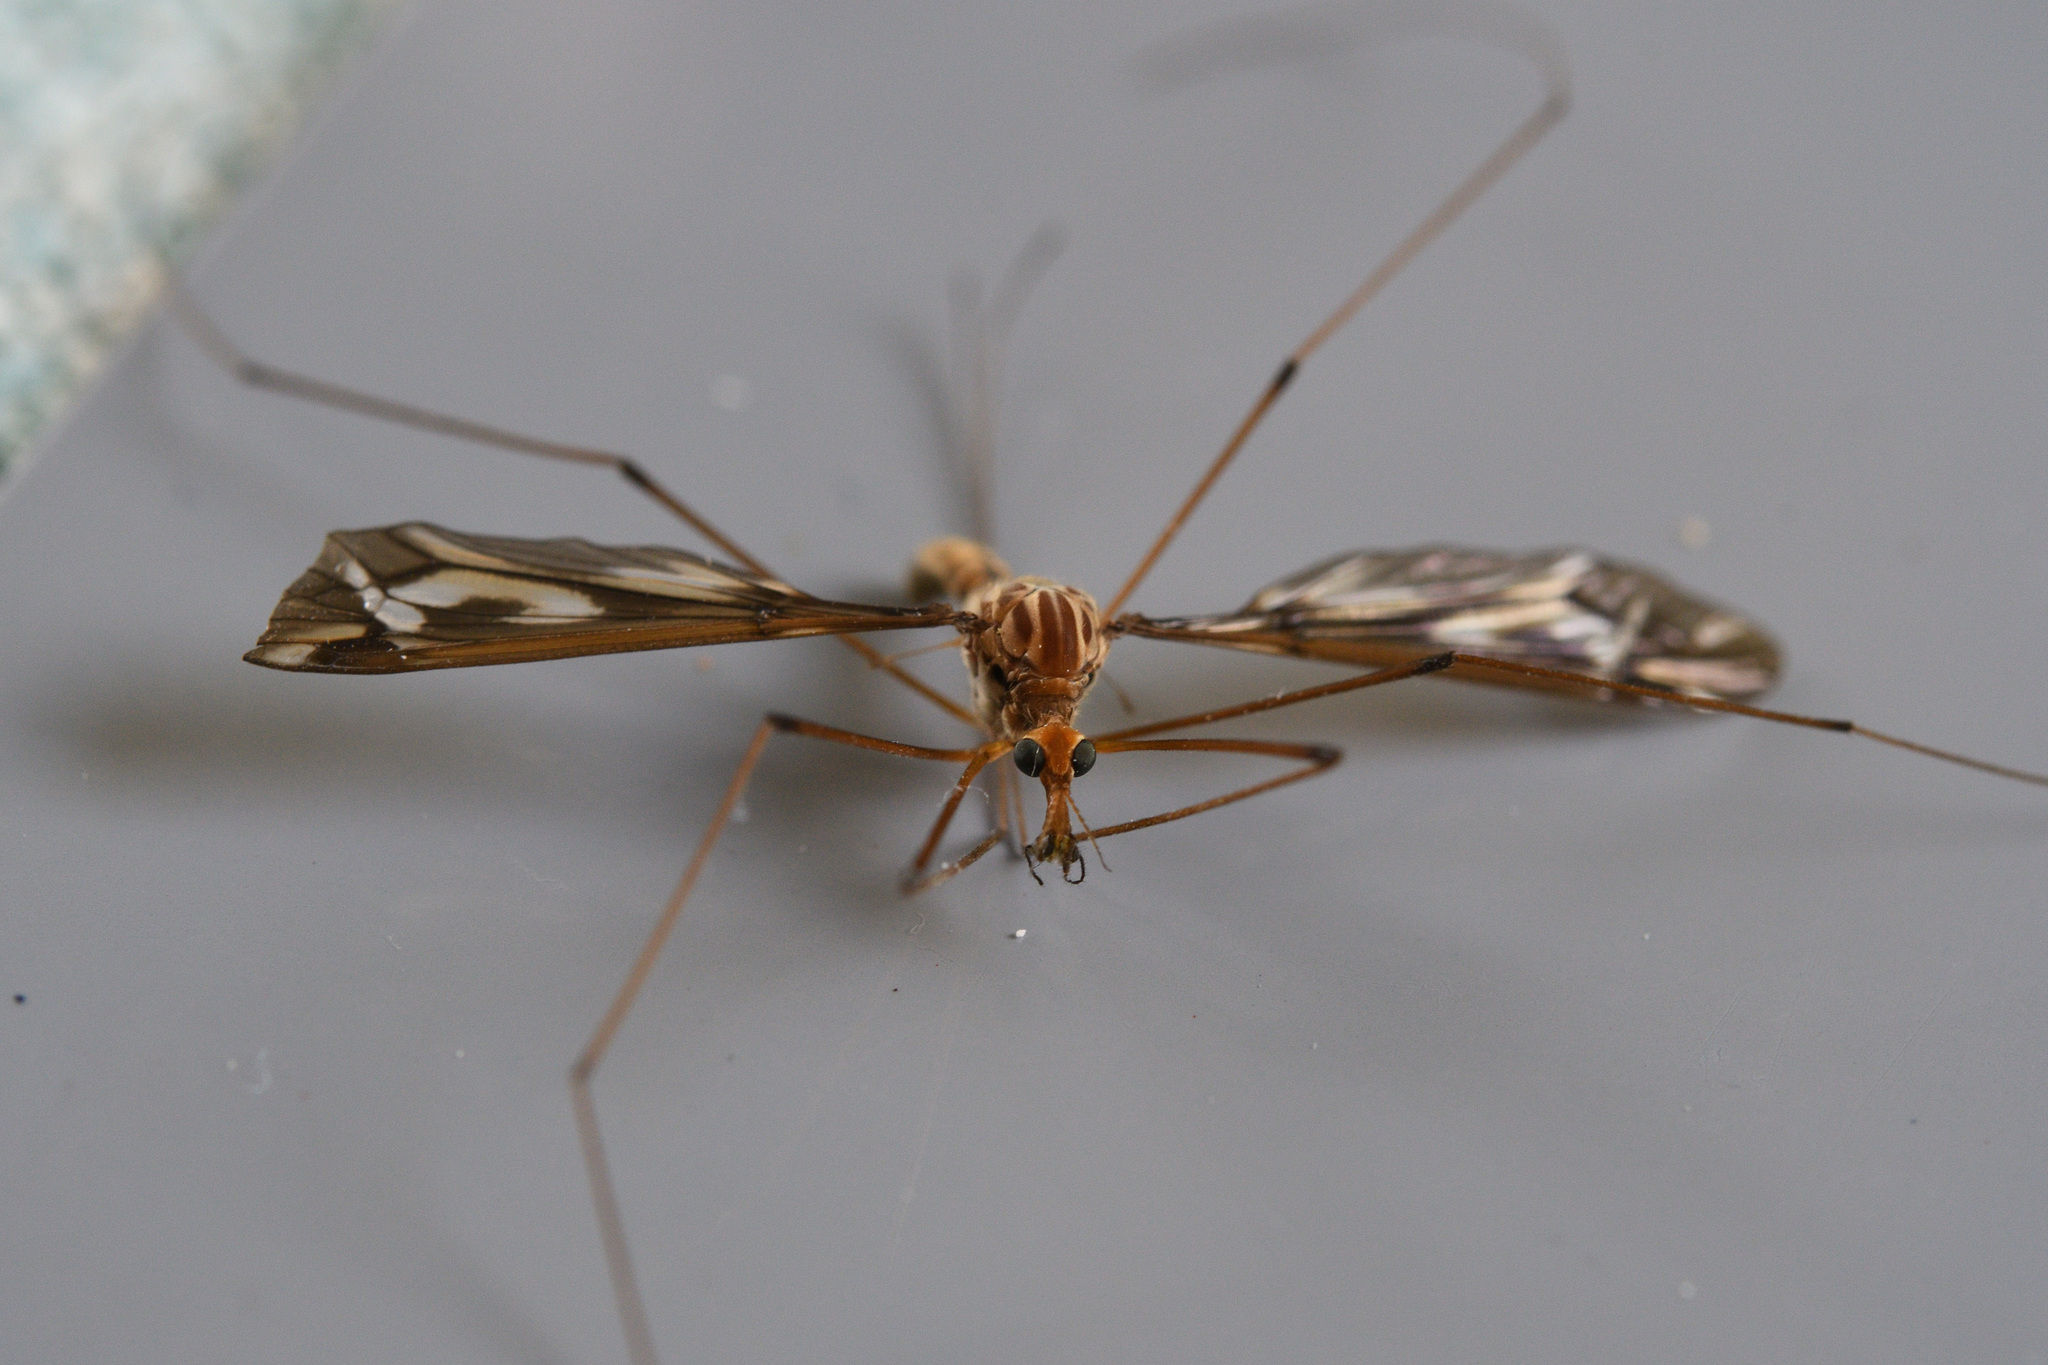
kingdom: Animalia
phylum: Arthropoda
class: Insecta
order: Diptera
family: Tipulidae
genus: Leptotarsus
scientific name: Leptotarsus huttoni
